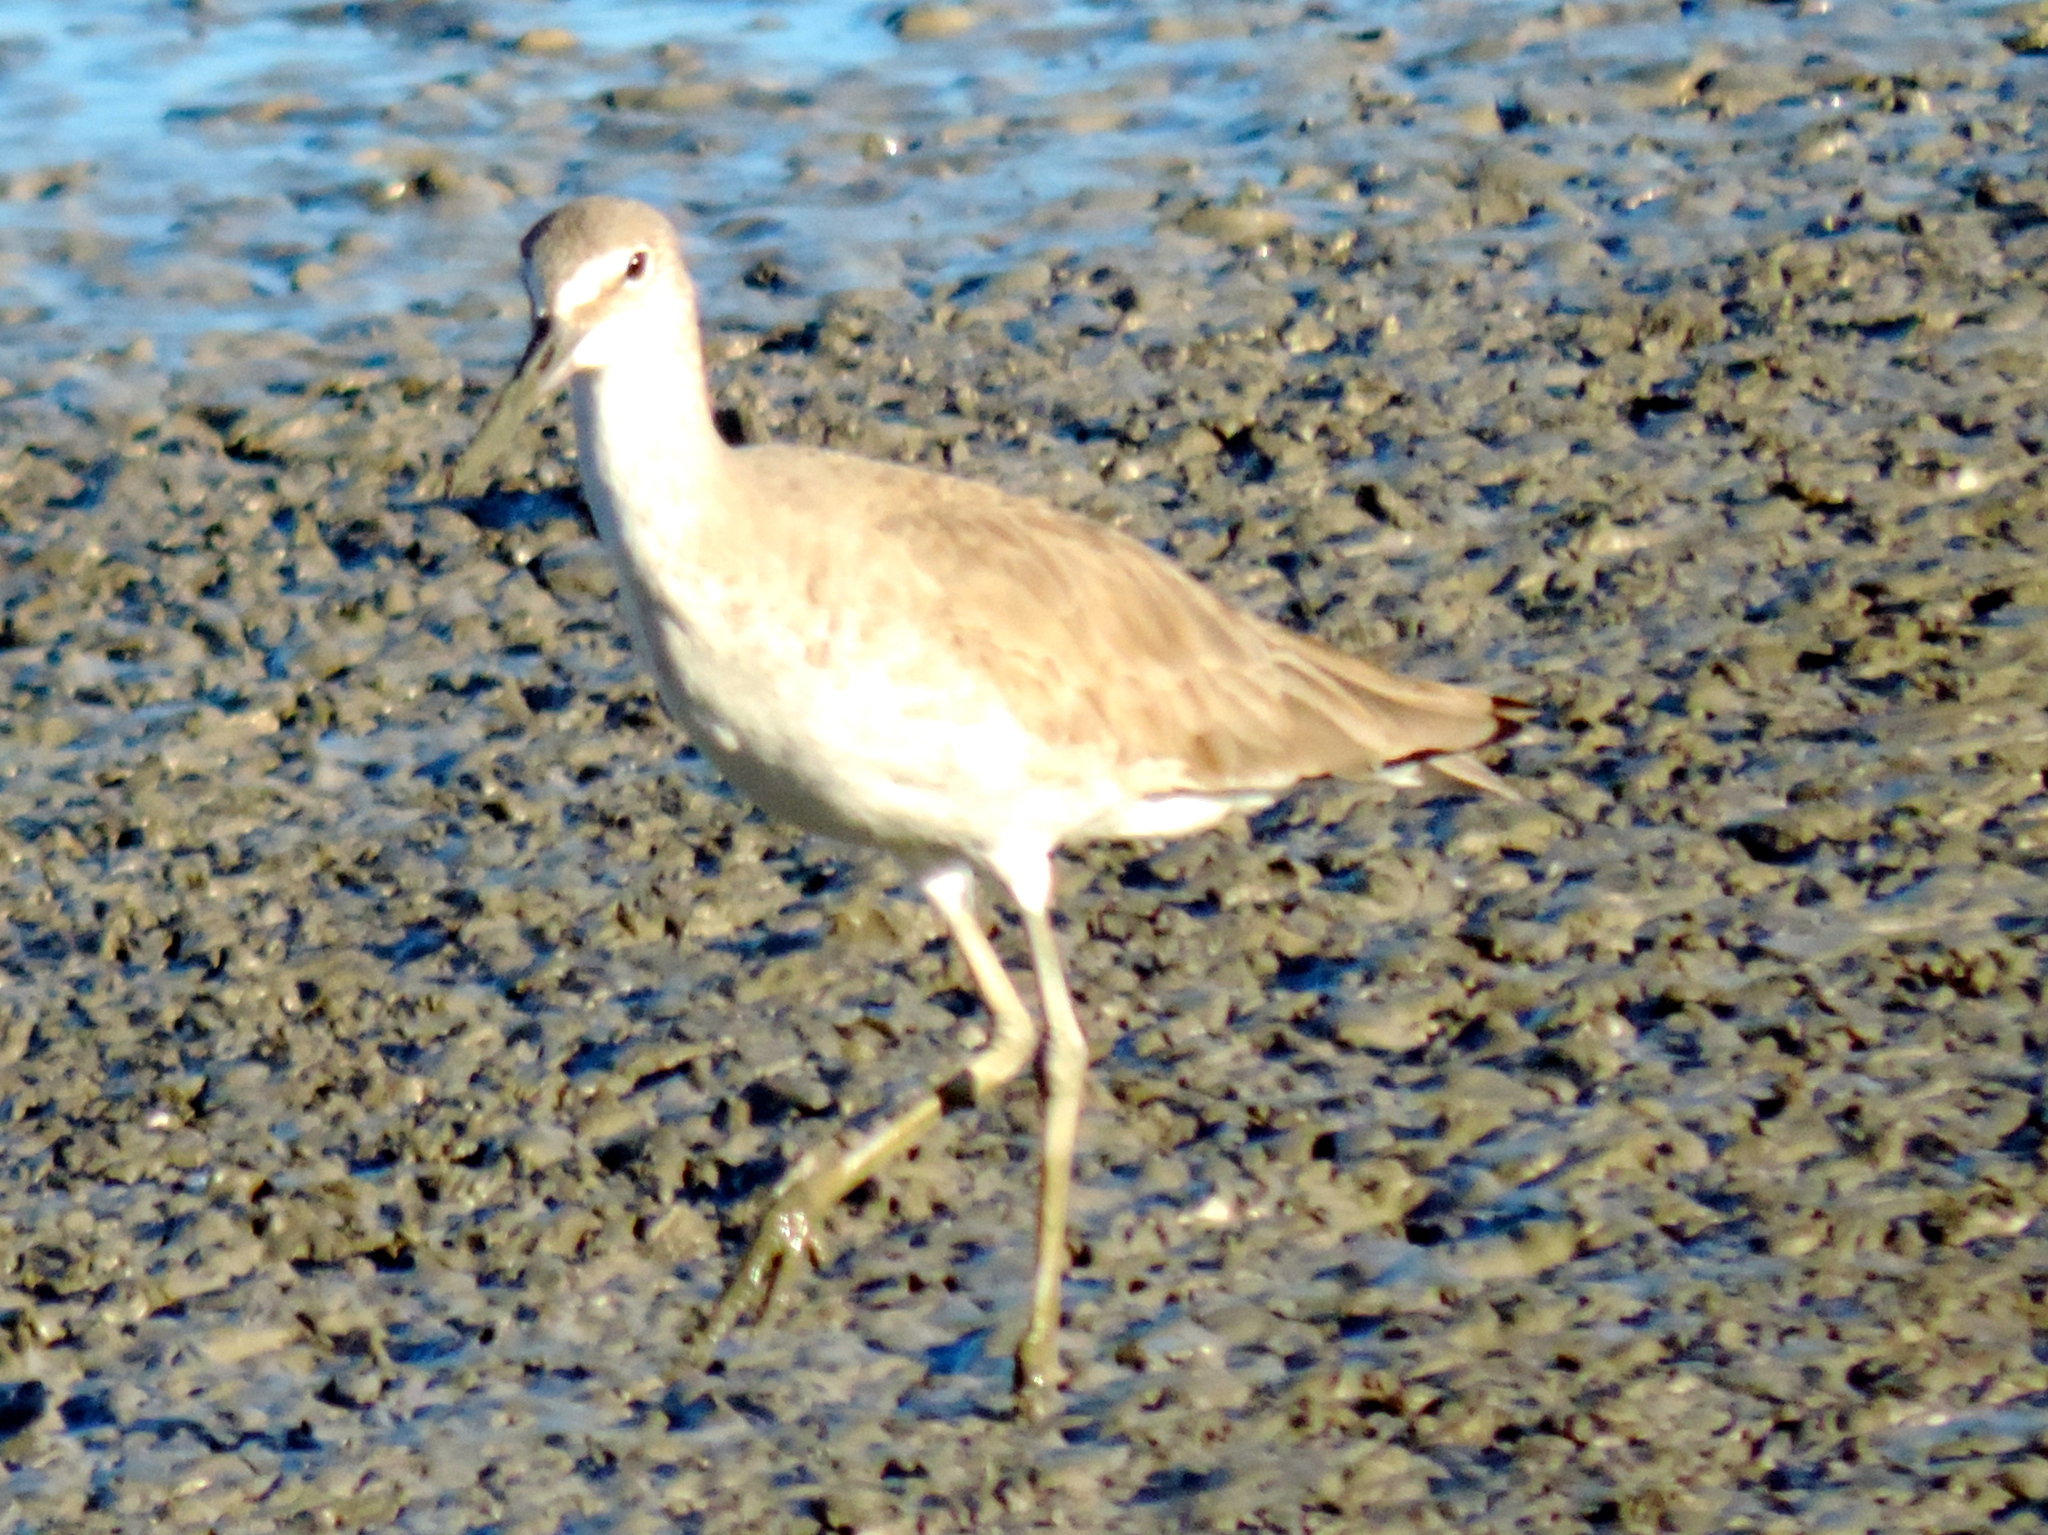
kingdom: Animalia
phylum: Chordata
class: Aves
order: Charadriiformes
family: Scolopacidae
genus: Tringa
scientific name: Tringa semipalmata
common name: Willet
